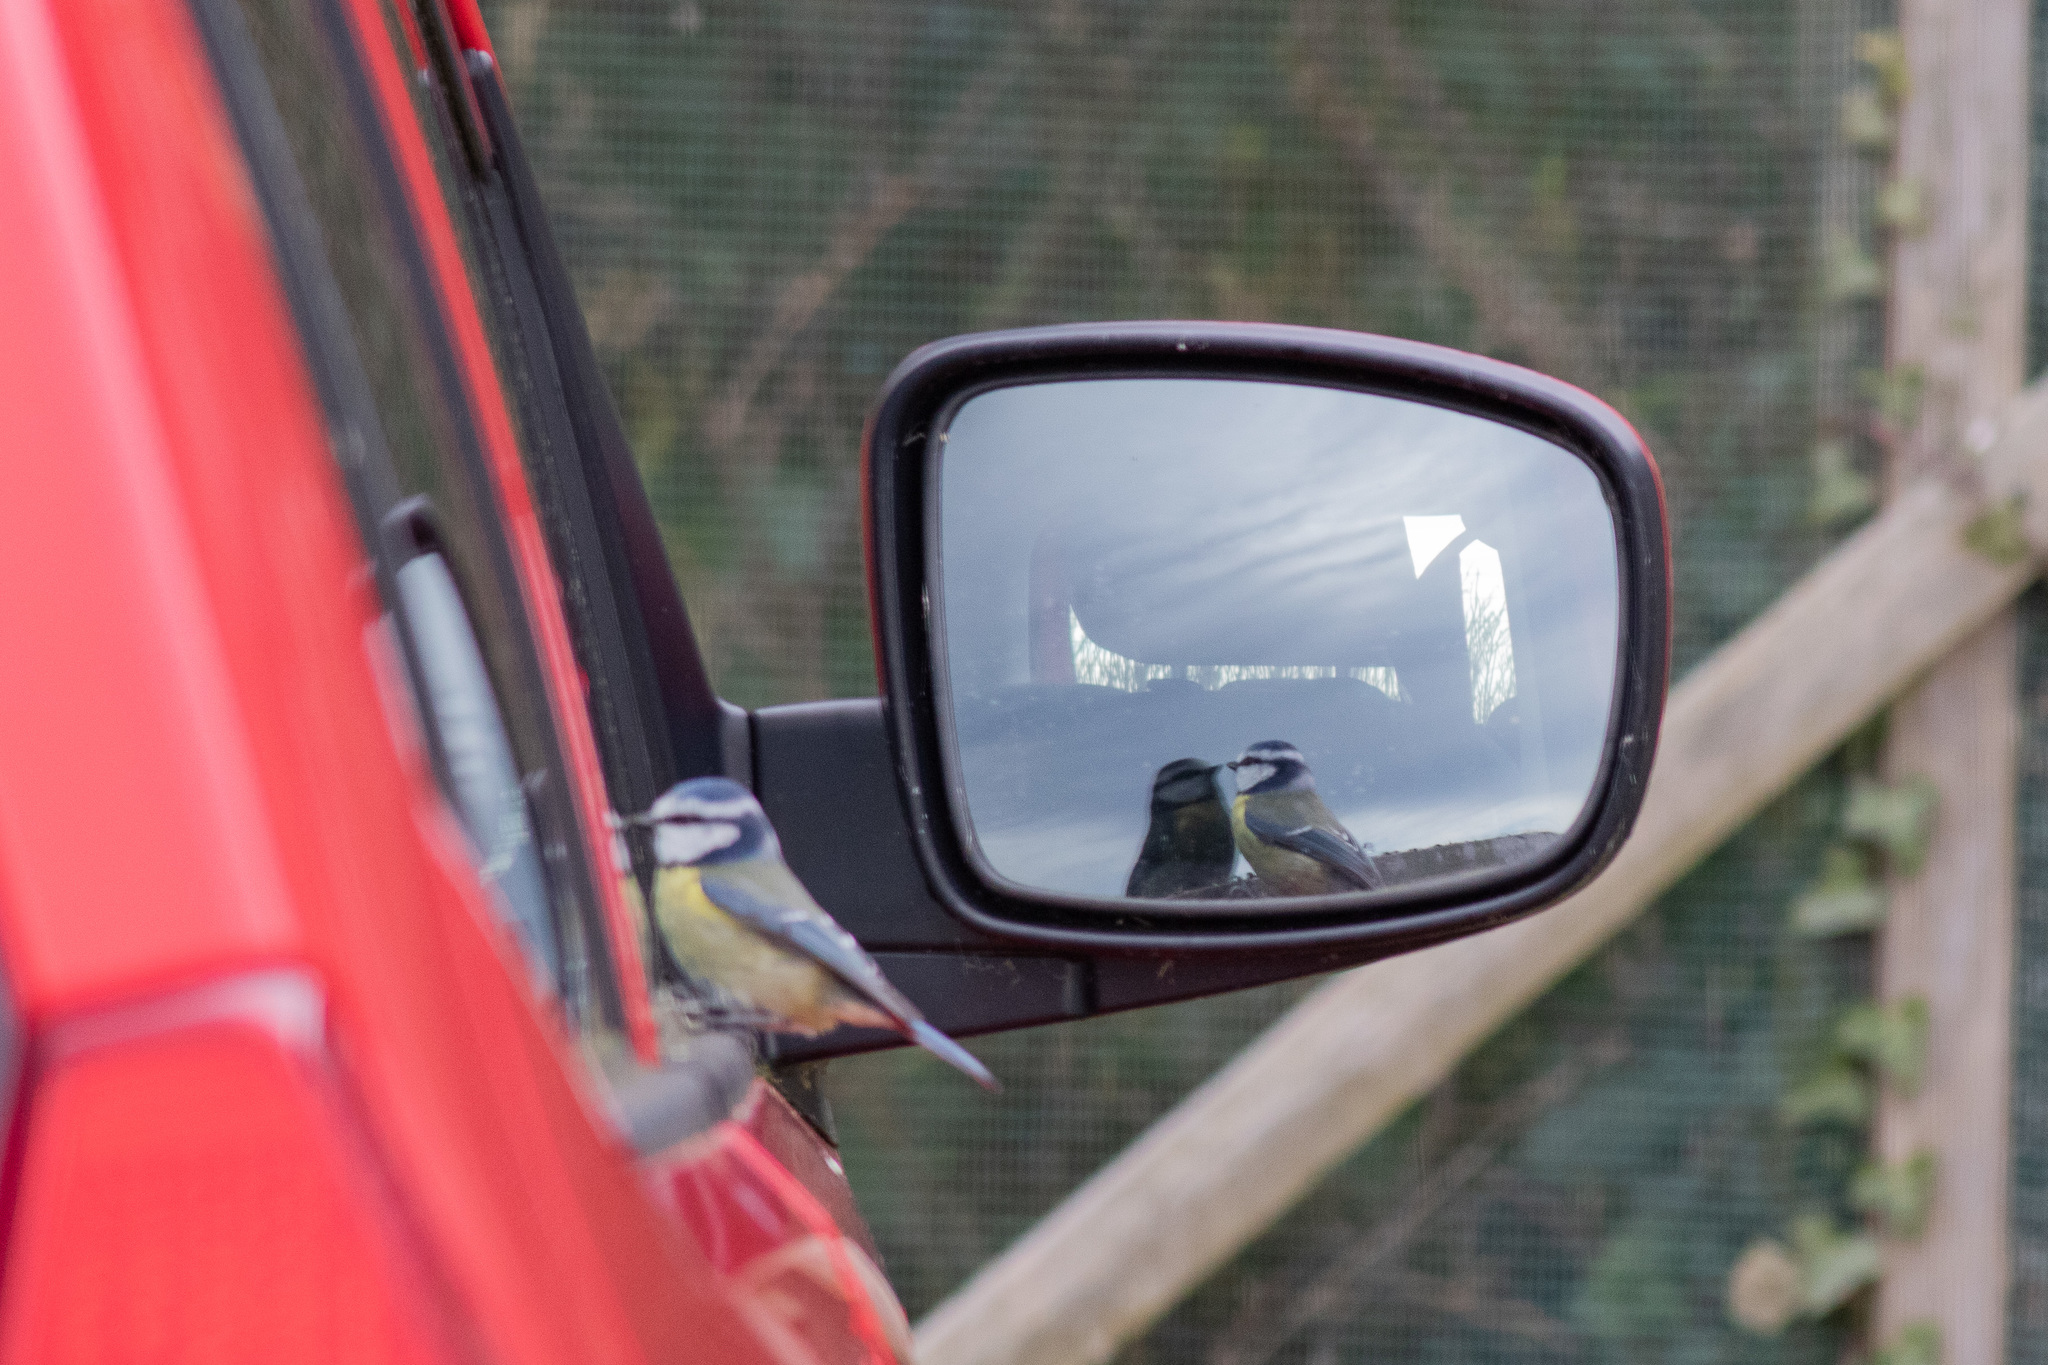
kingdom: Animalia
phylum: Chordata
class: Aves
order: Passeriformes
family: Paridae
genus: Cyanistes
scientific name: Cyanistes caeruleus
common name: Eurasian blue tit
